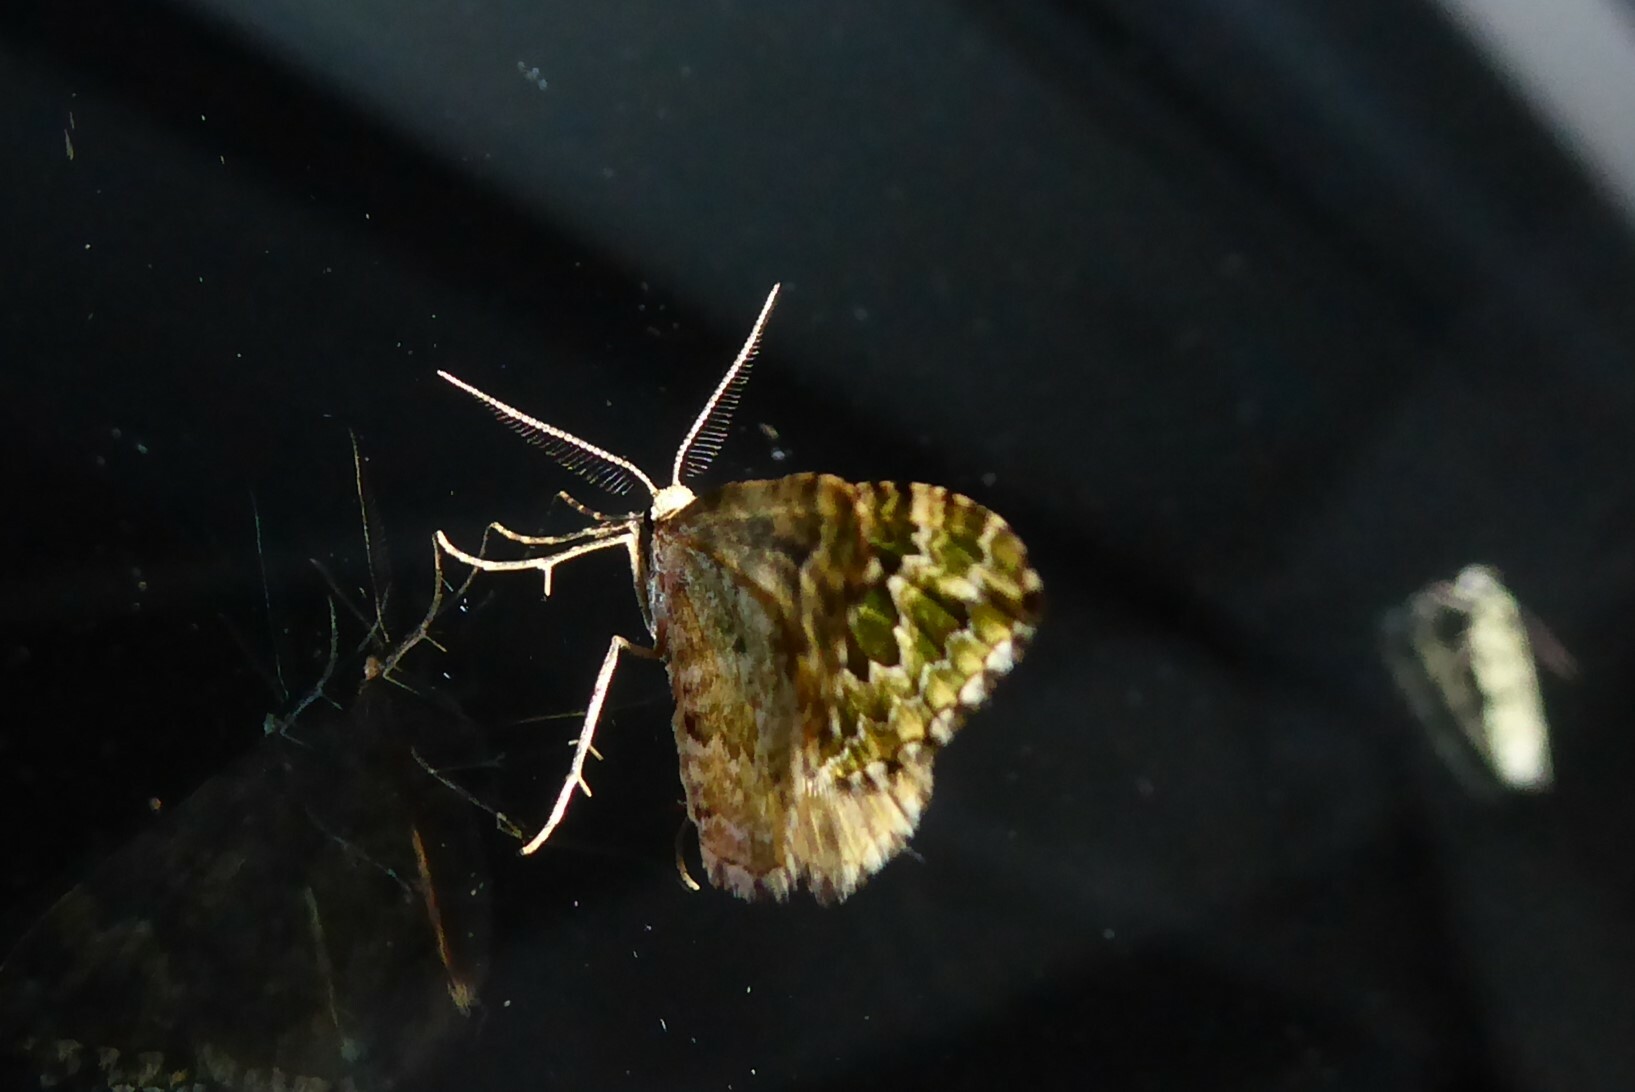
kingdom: Animalia
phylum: Arthropoda
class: Insecta
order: Lepidoptera
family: Geometridae
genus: Asaphodes
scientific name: Asaphodes beata
